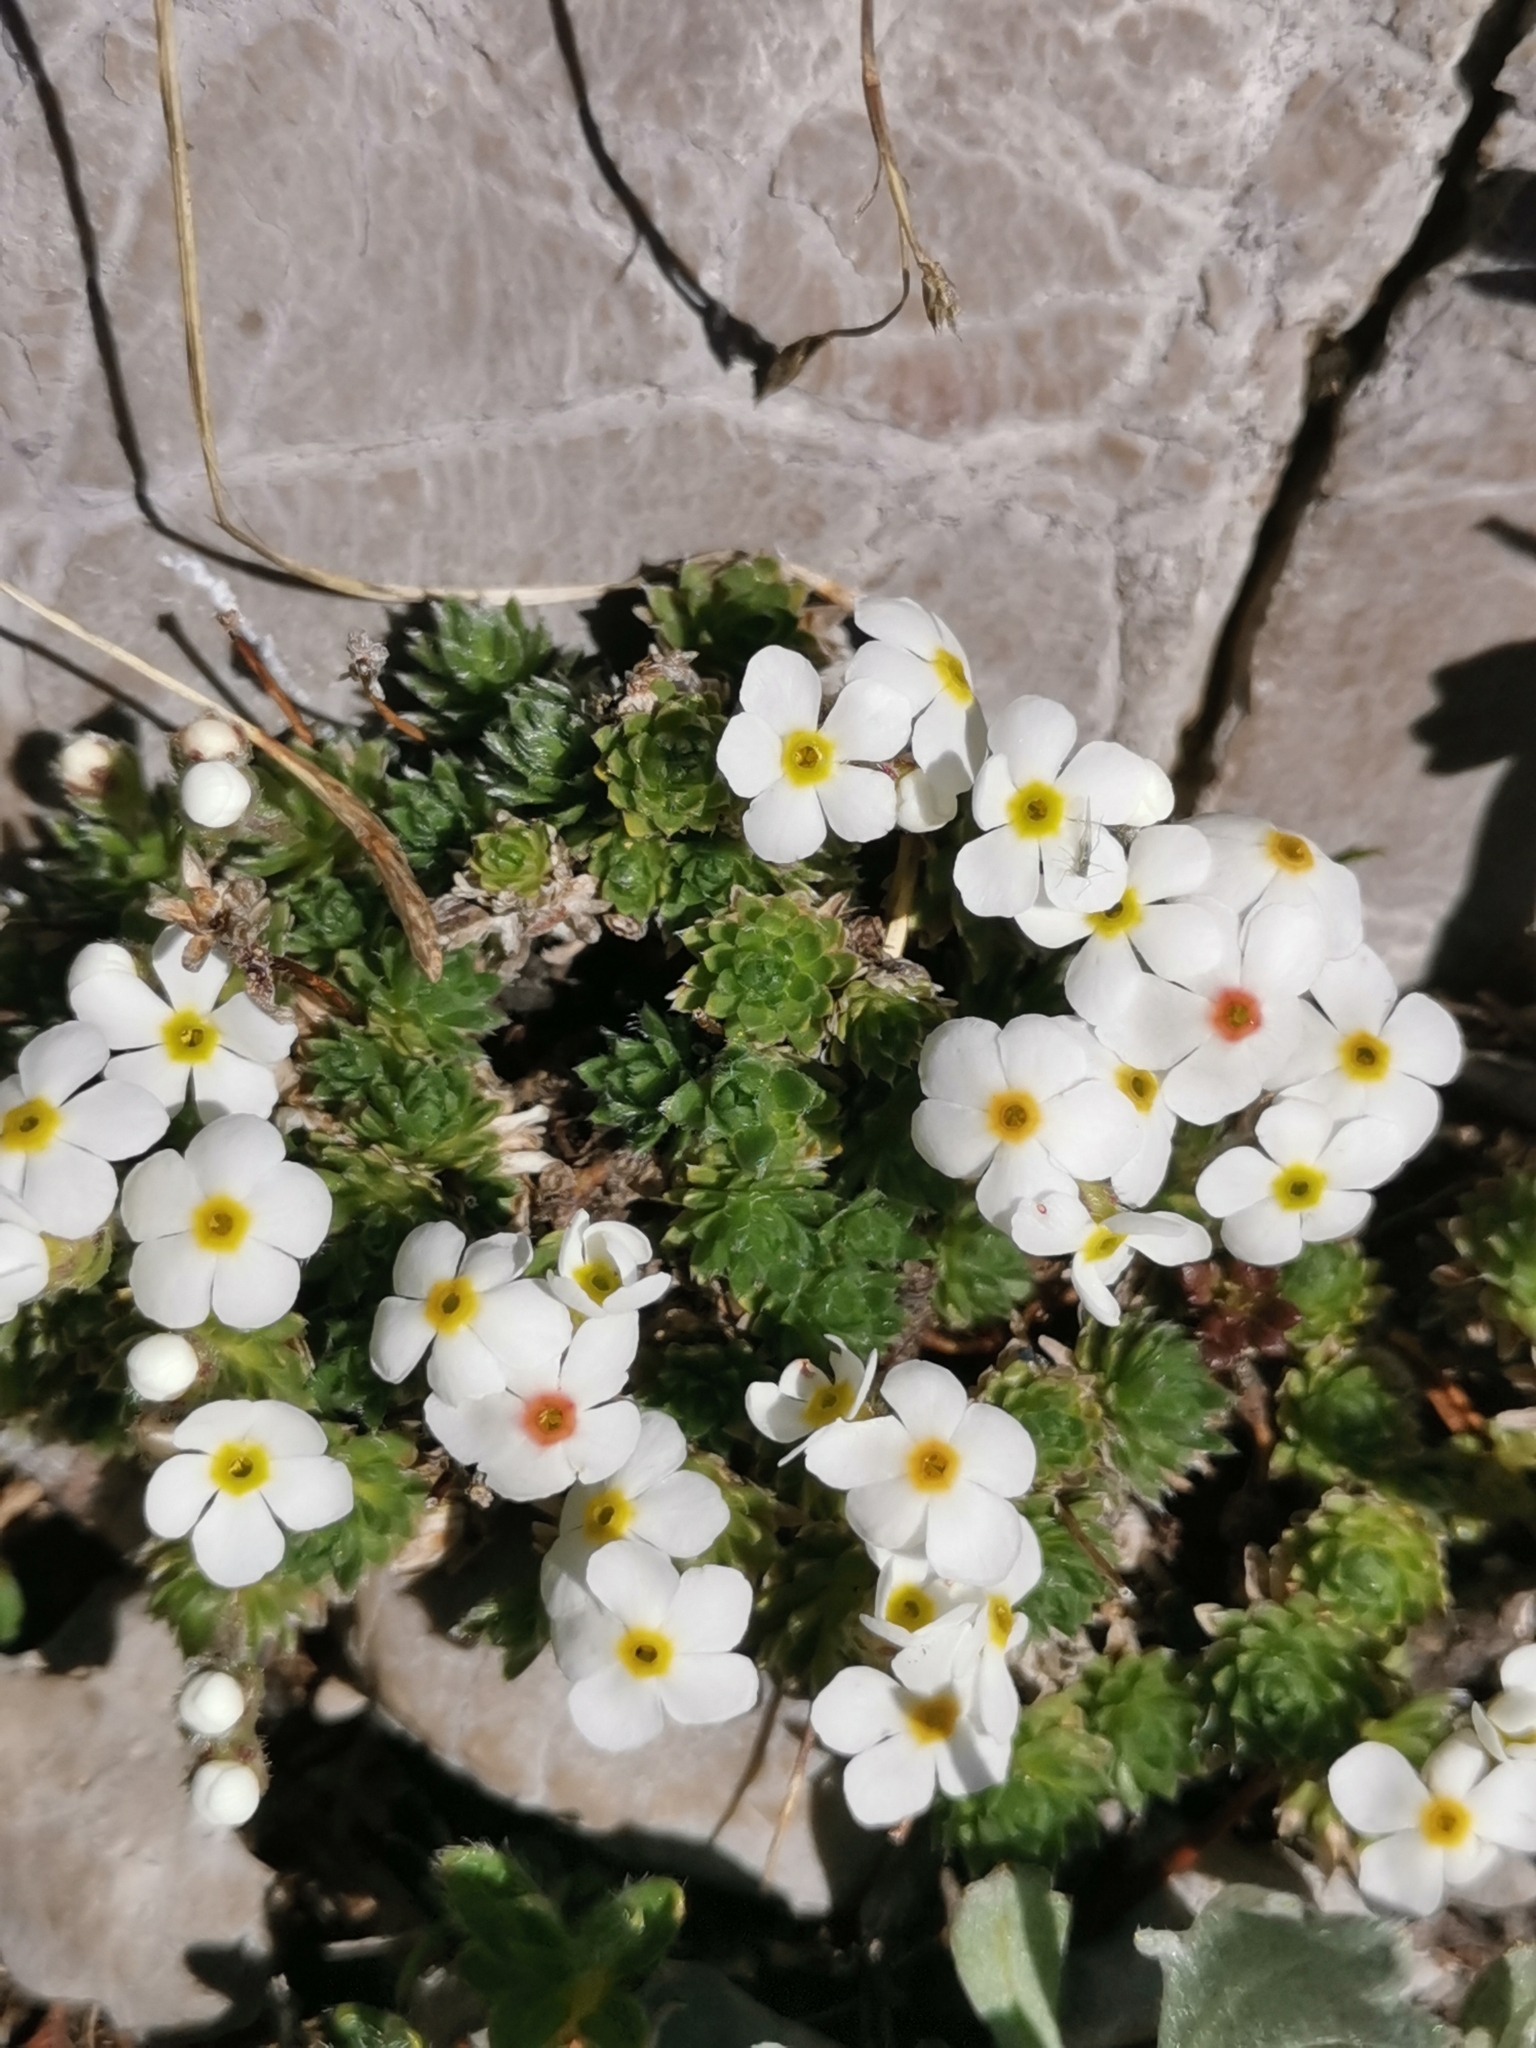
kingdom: Plantae
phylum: Tracheophyta
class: Magnoliopsida
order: Ericales
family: Primulaceae
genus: Androsace
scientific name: Androsace villosa
